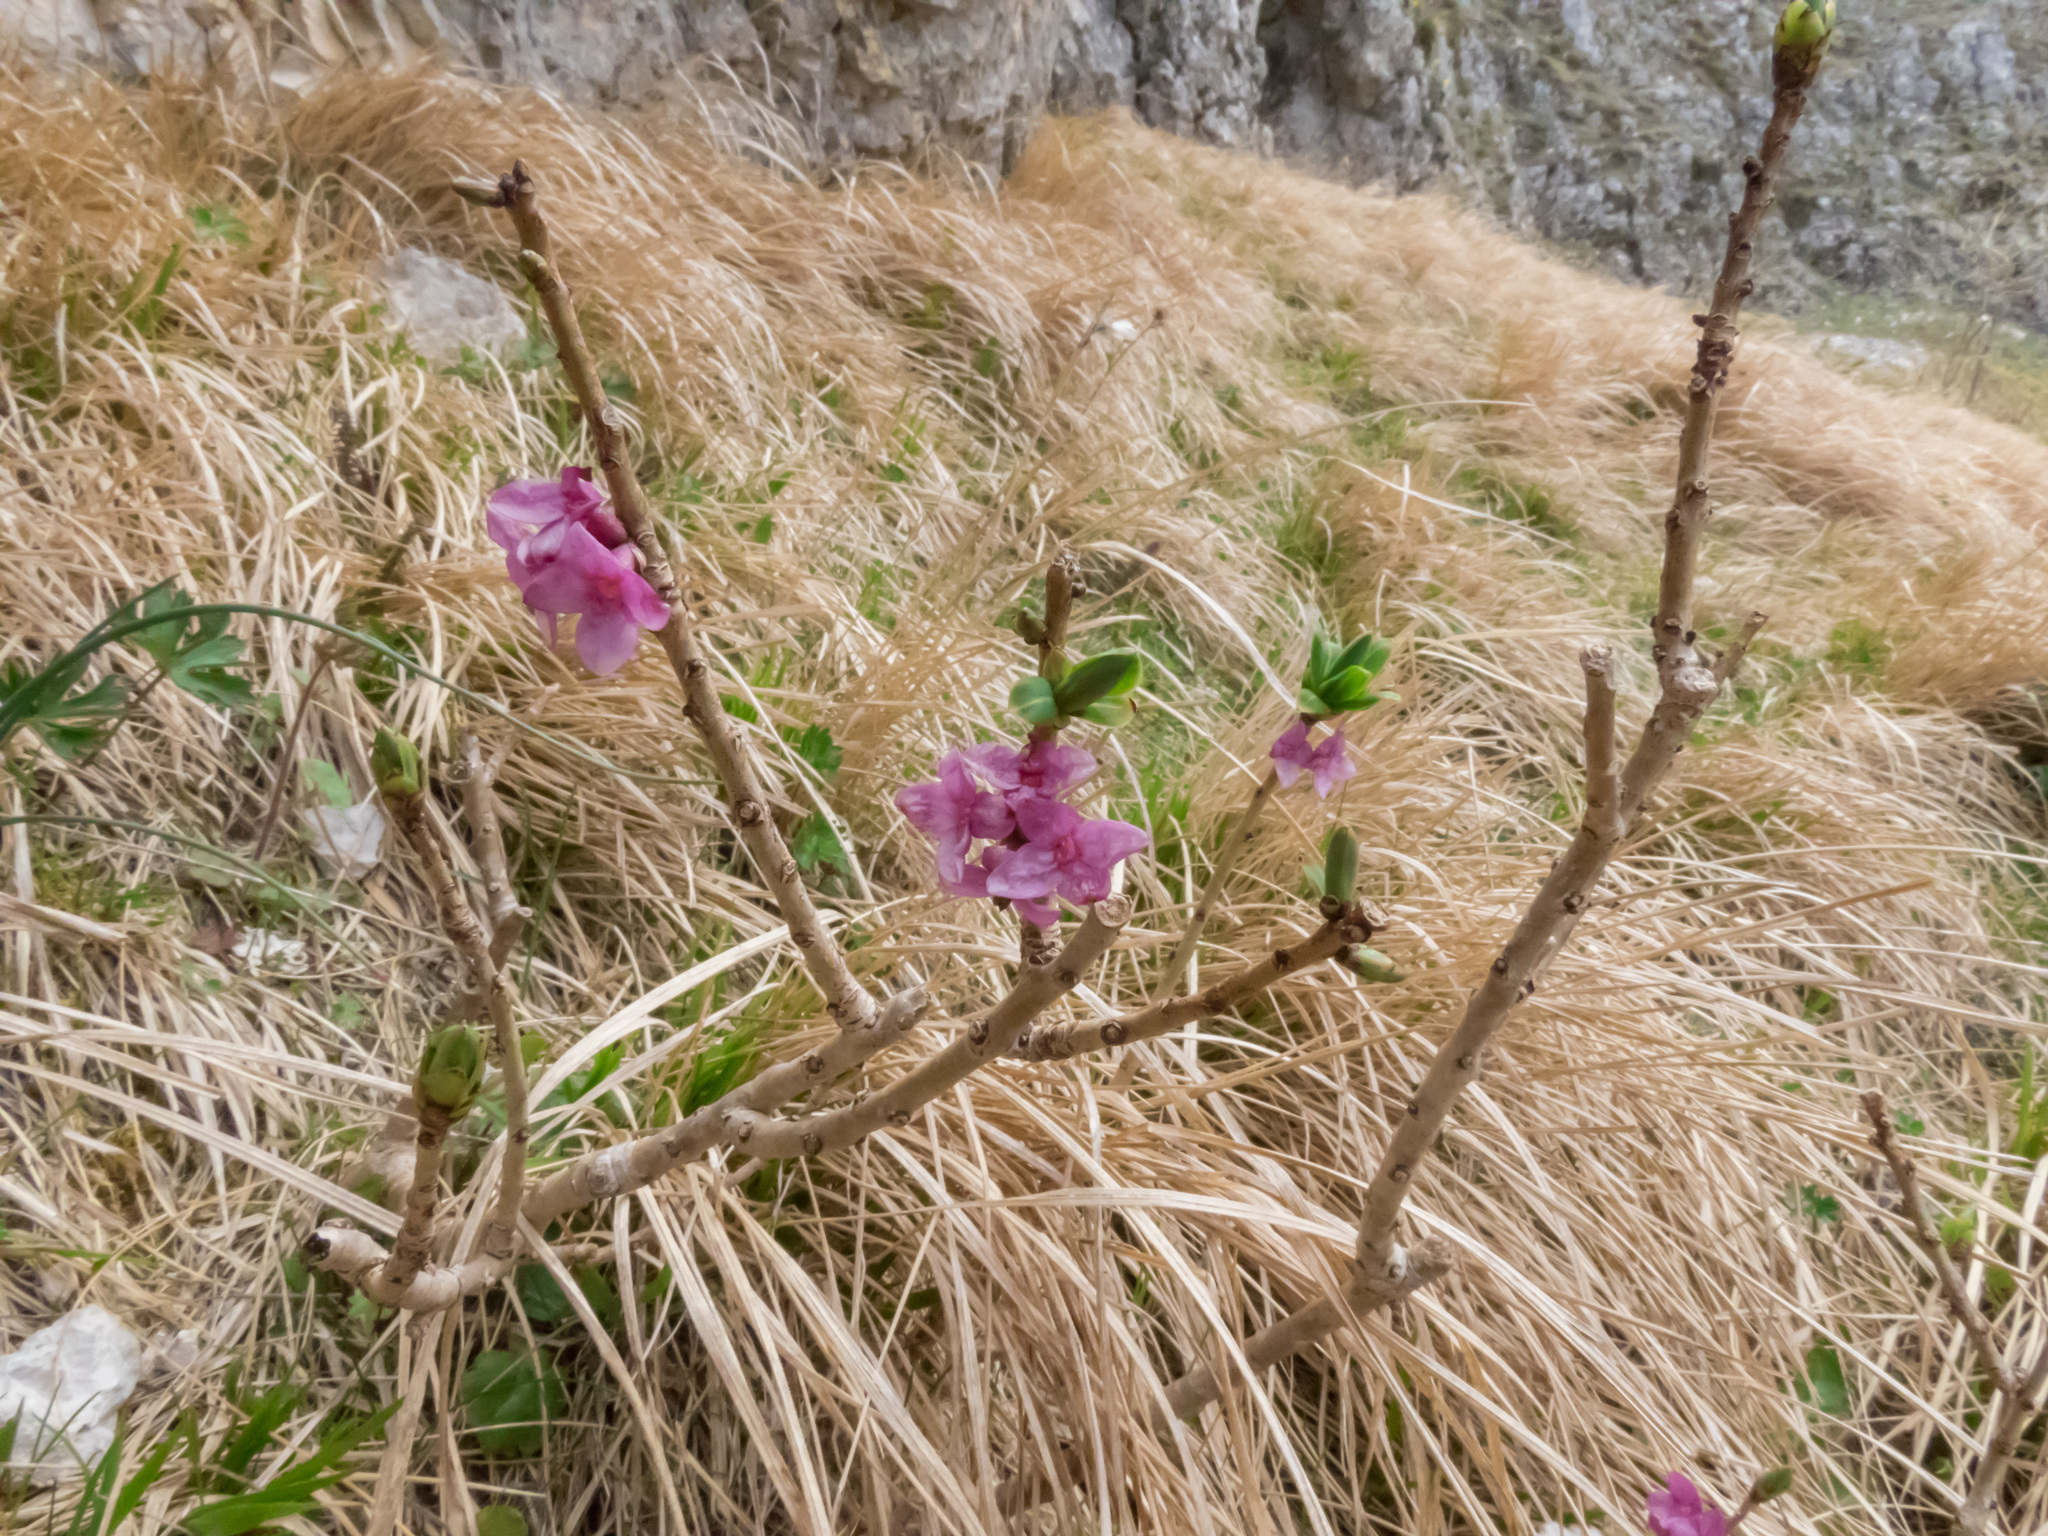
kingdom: Plantae
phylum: Tracheophyta
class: Magnoliopsida
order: Malvales
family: Thymelaeaceae
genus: Daphne
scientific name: Daphne mezereum
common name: Mezereon
